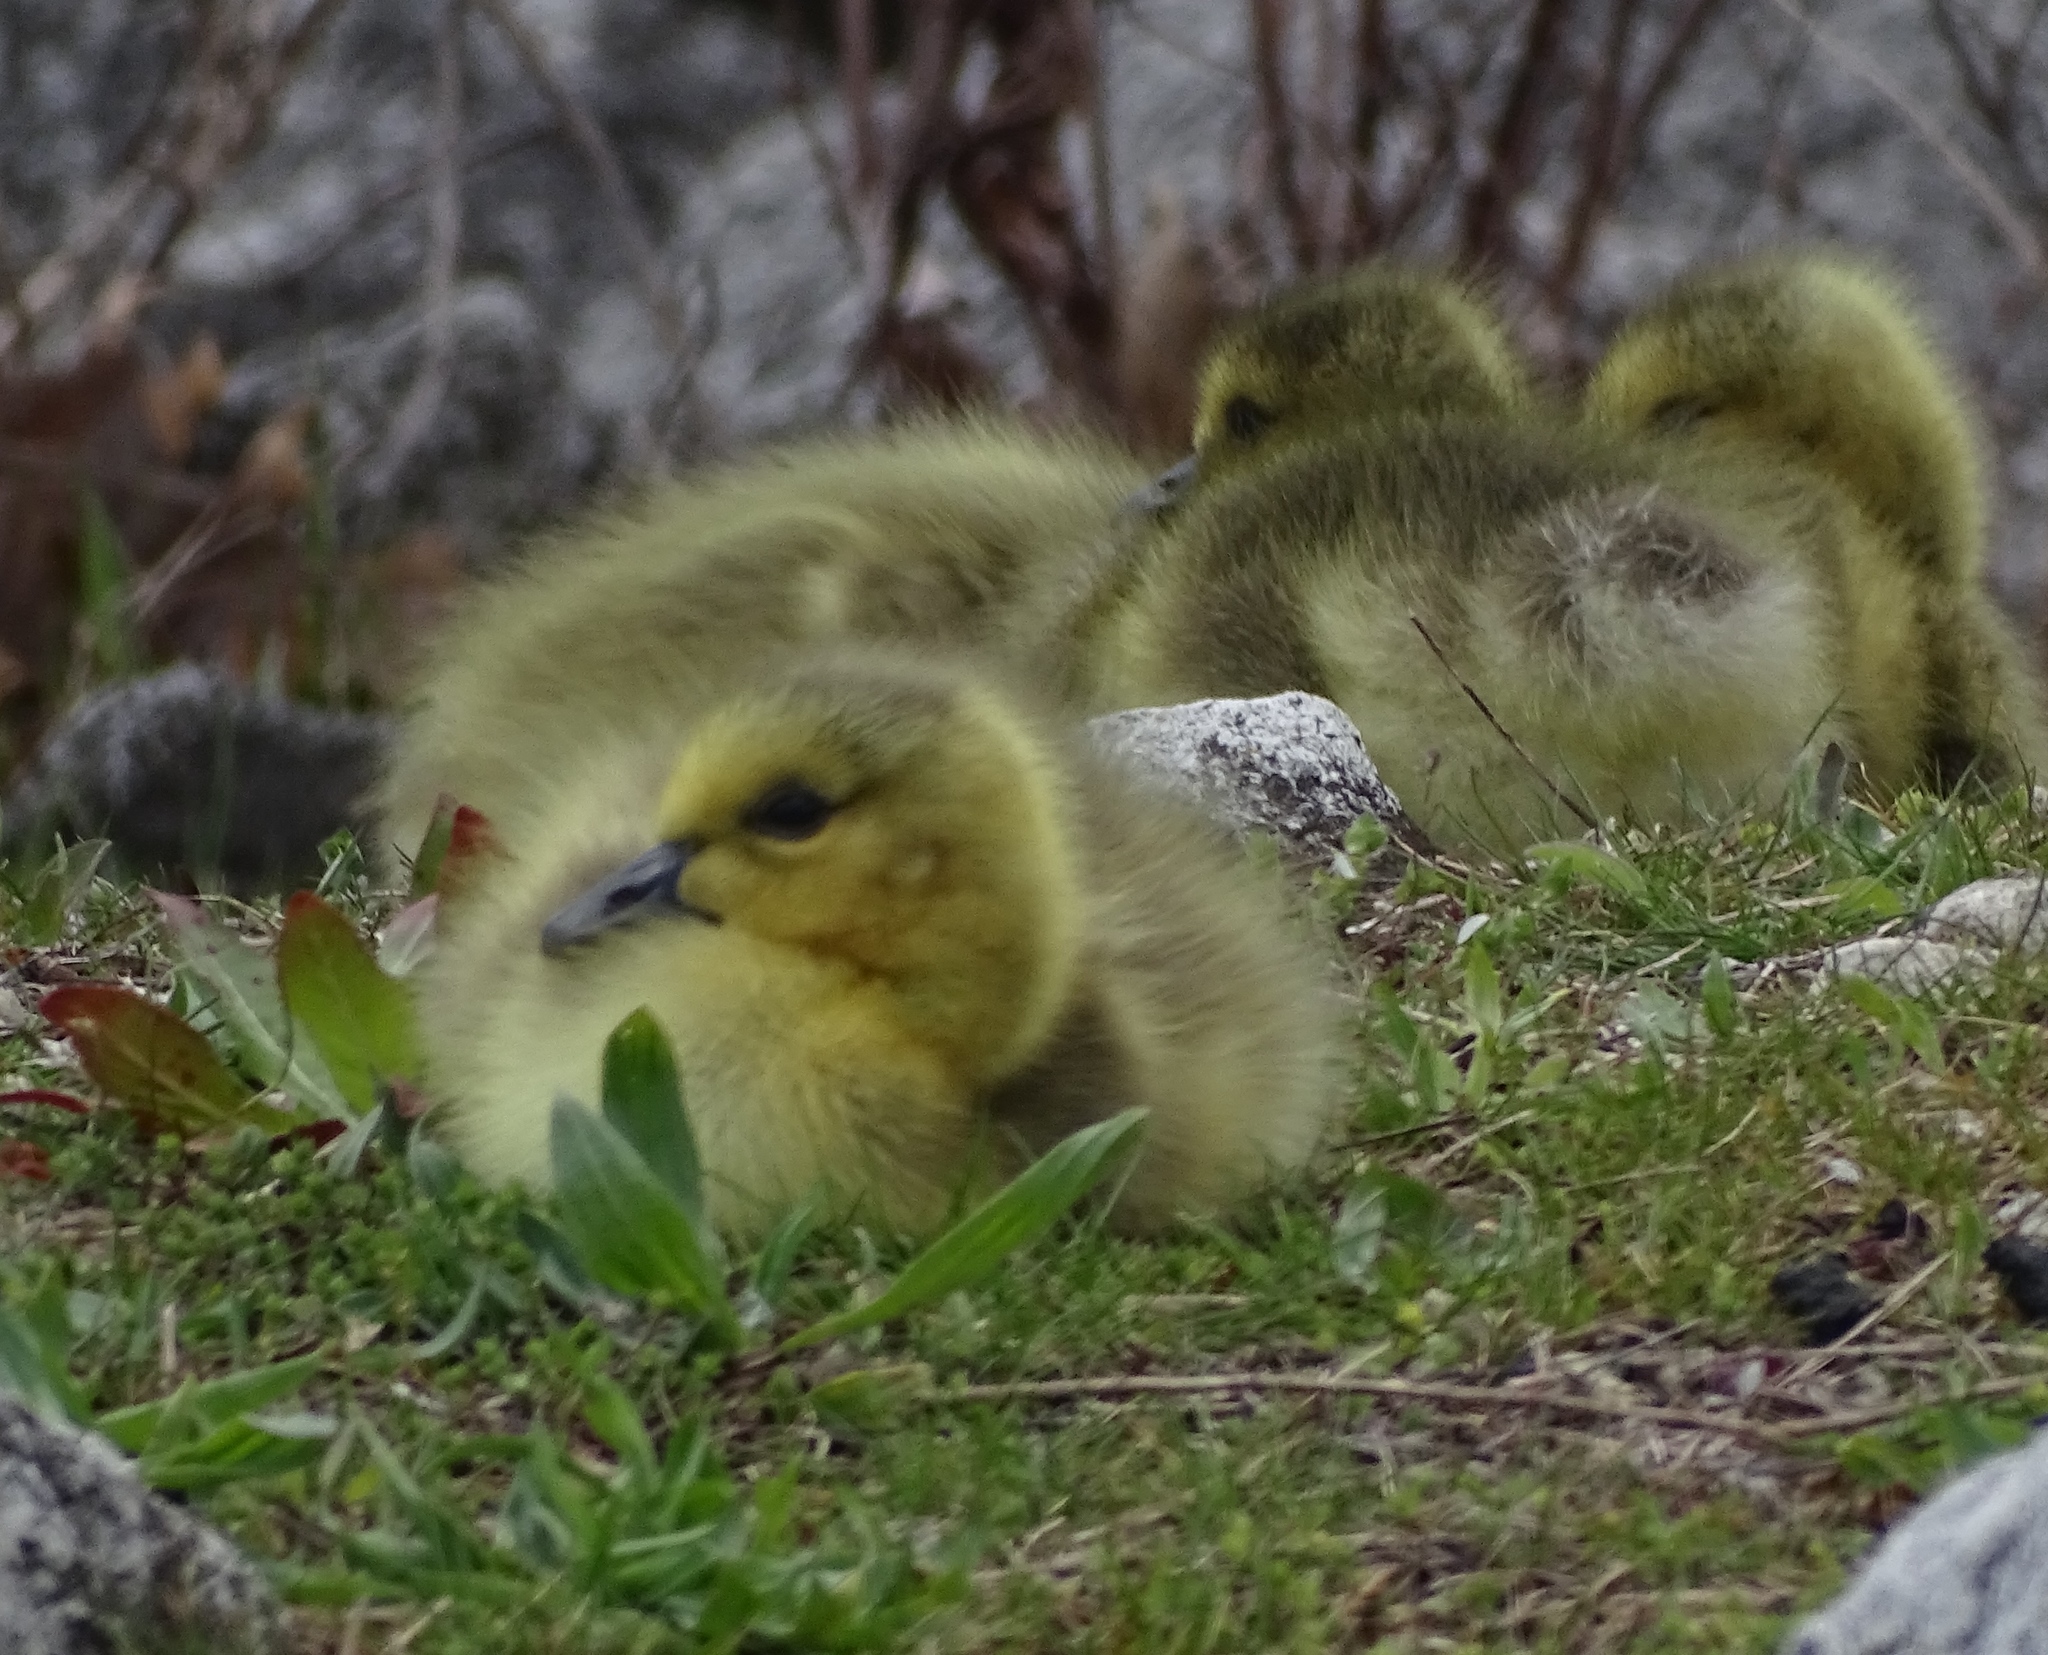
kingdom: Animalia
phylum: Chordata
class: Aves
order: Anseriformes
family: Anatidae
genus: Branta
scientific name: Branta canadensis
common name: Canada goose
